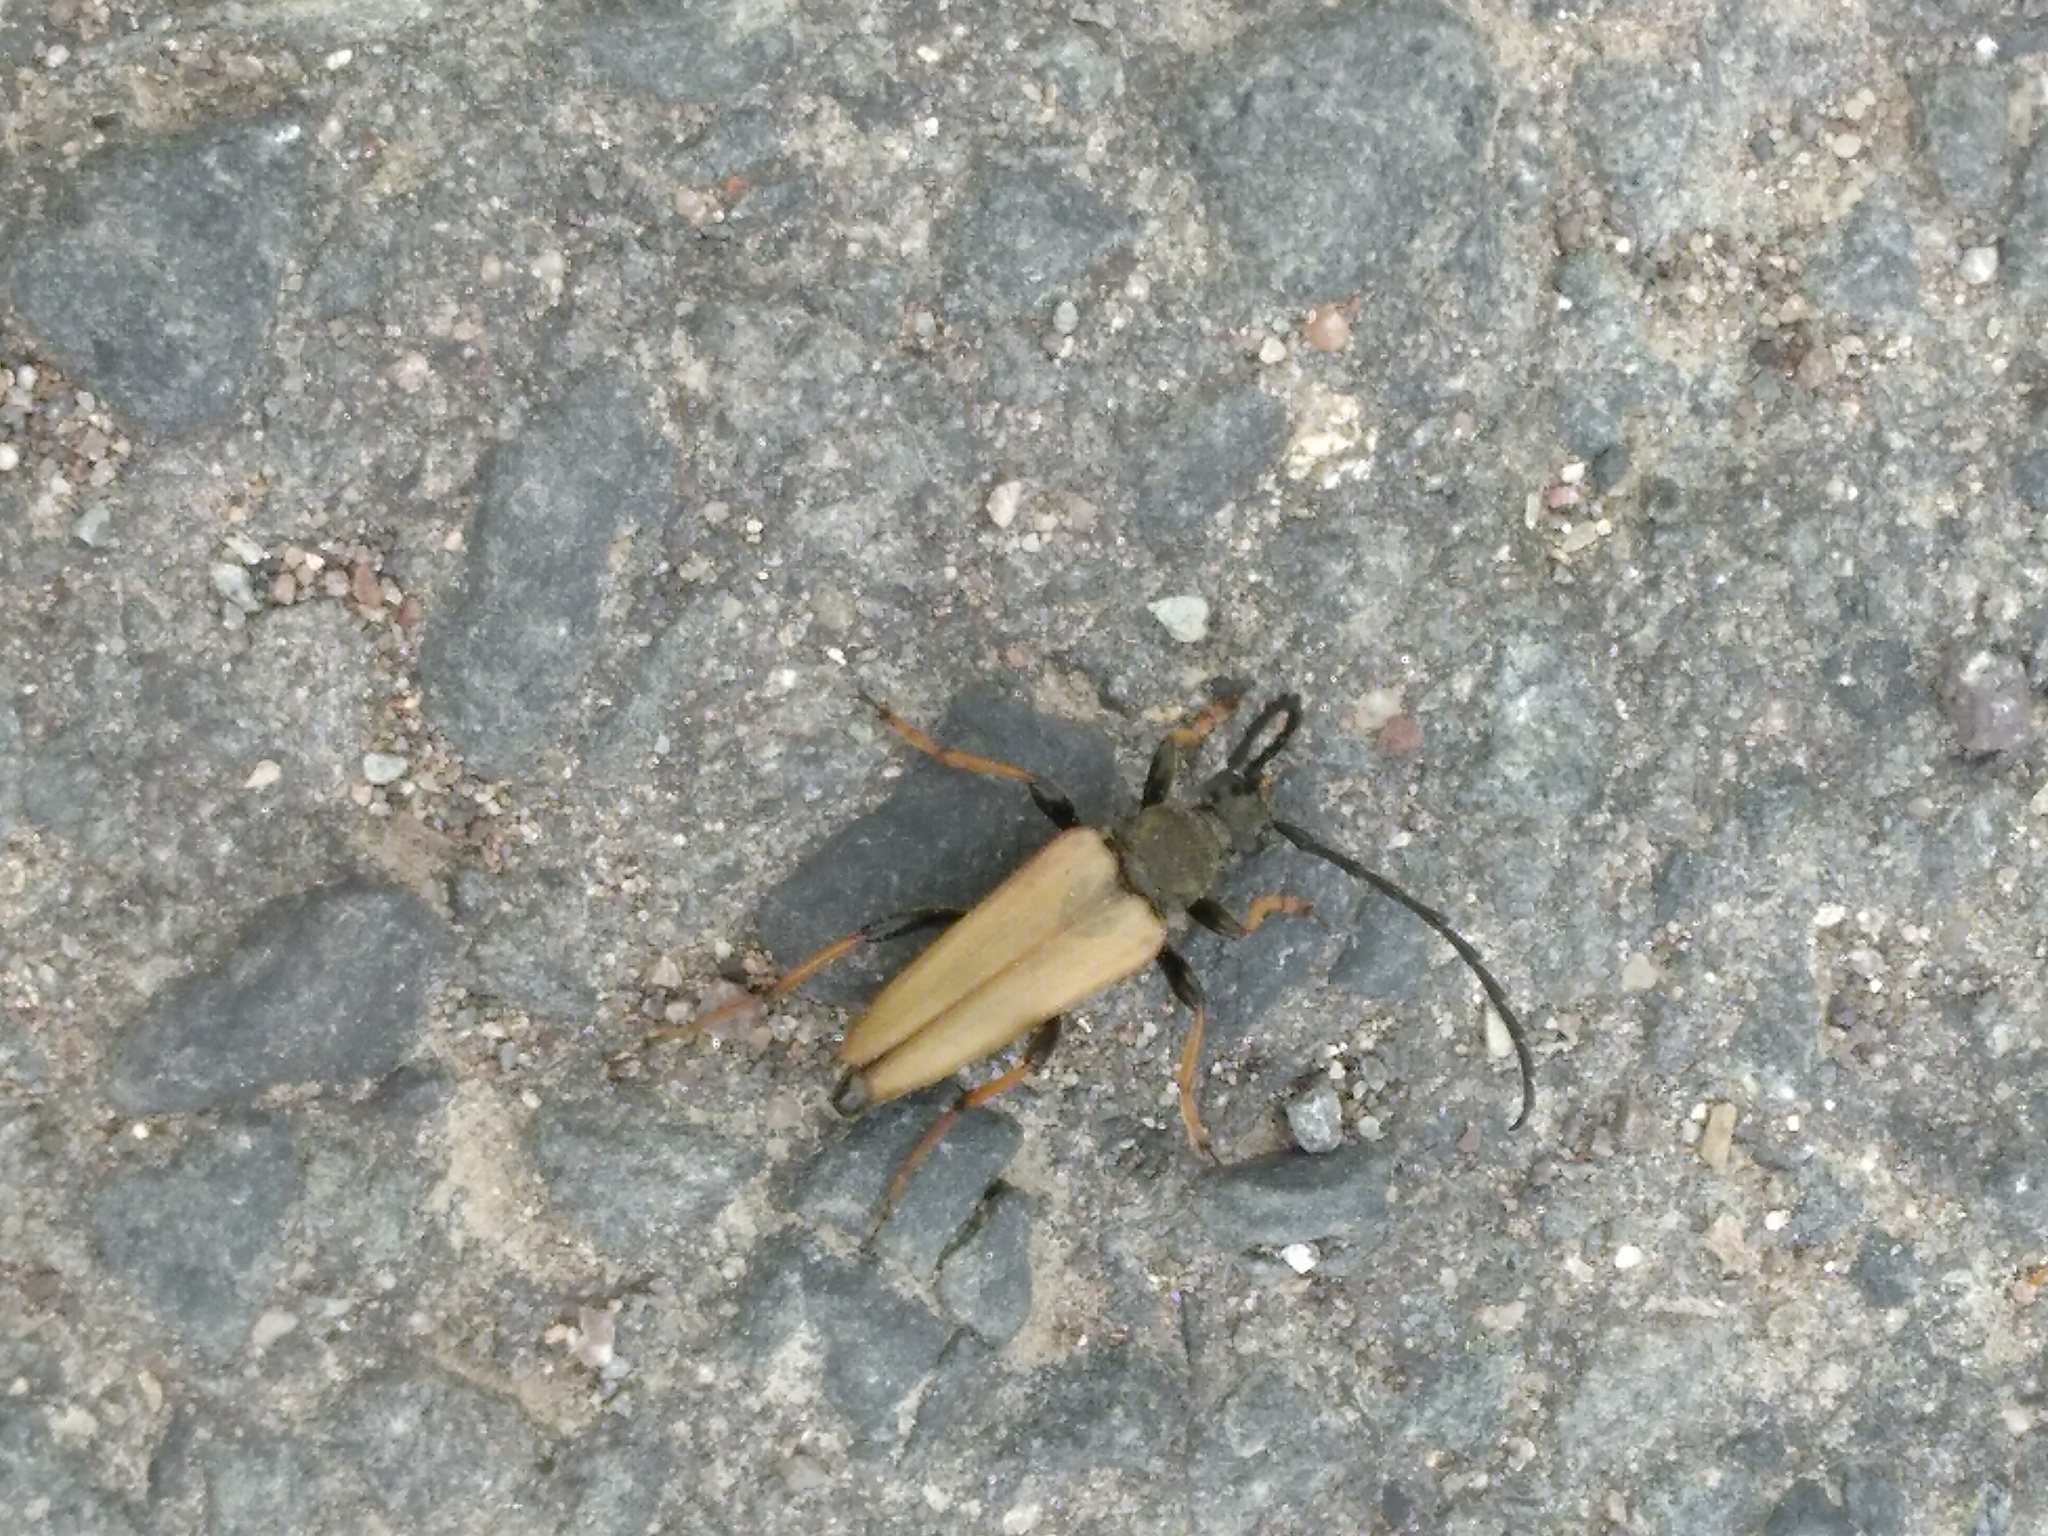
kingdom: Animalia
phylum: Arthropoda
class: Insecta
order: Coleoptera
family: Cerambycidae
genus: Stictoleptura
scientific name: Stictoleptura rubra
